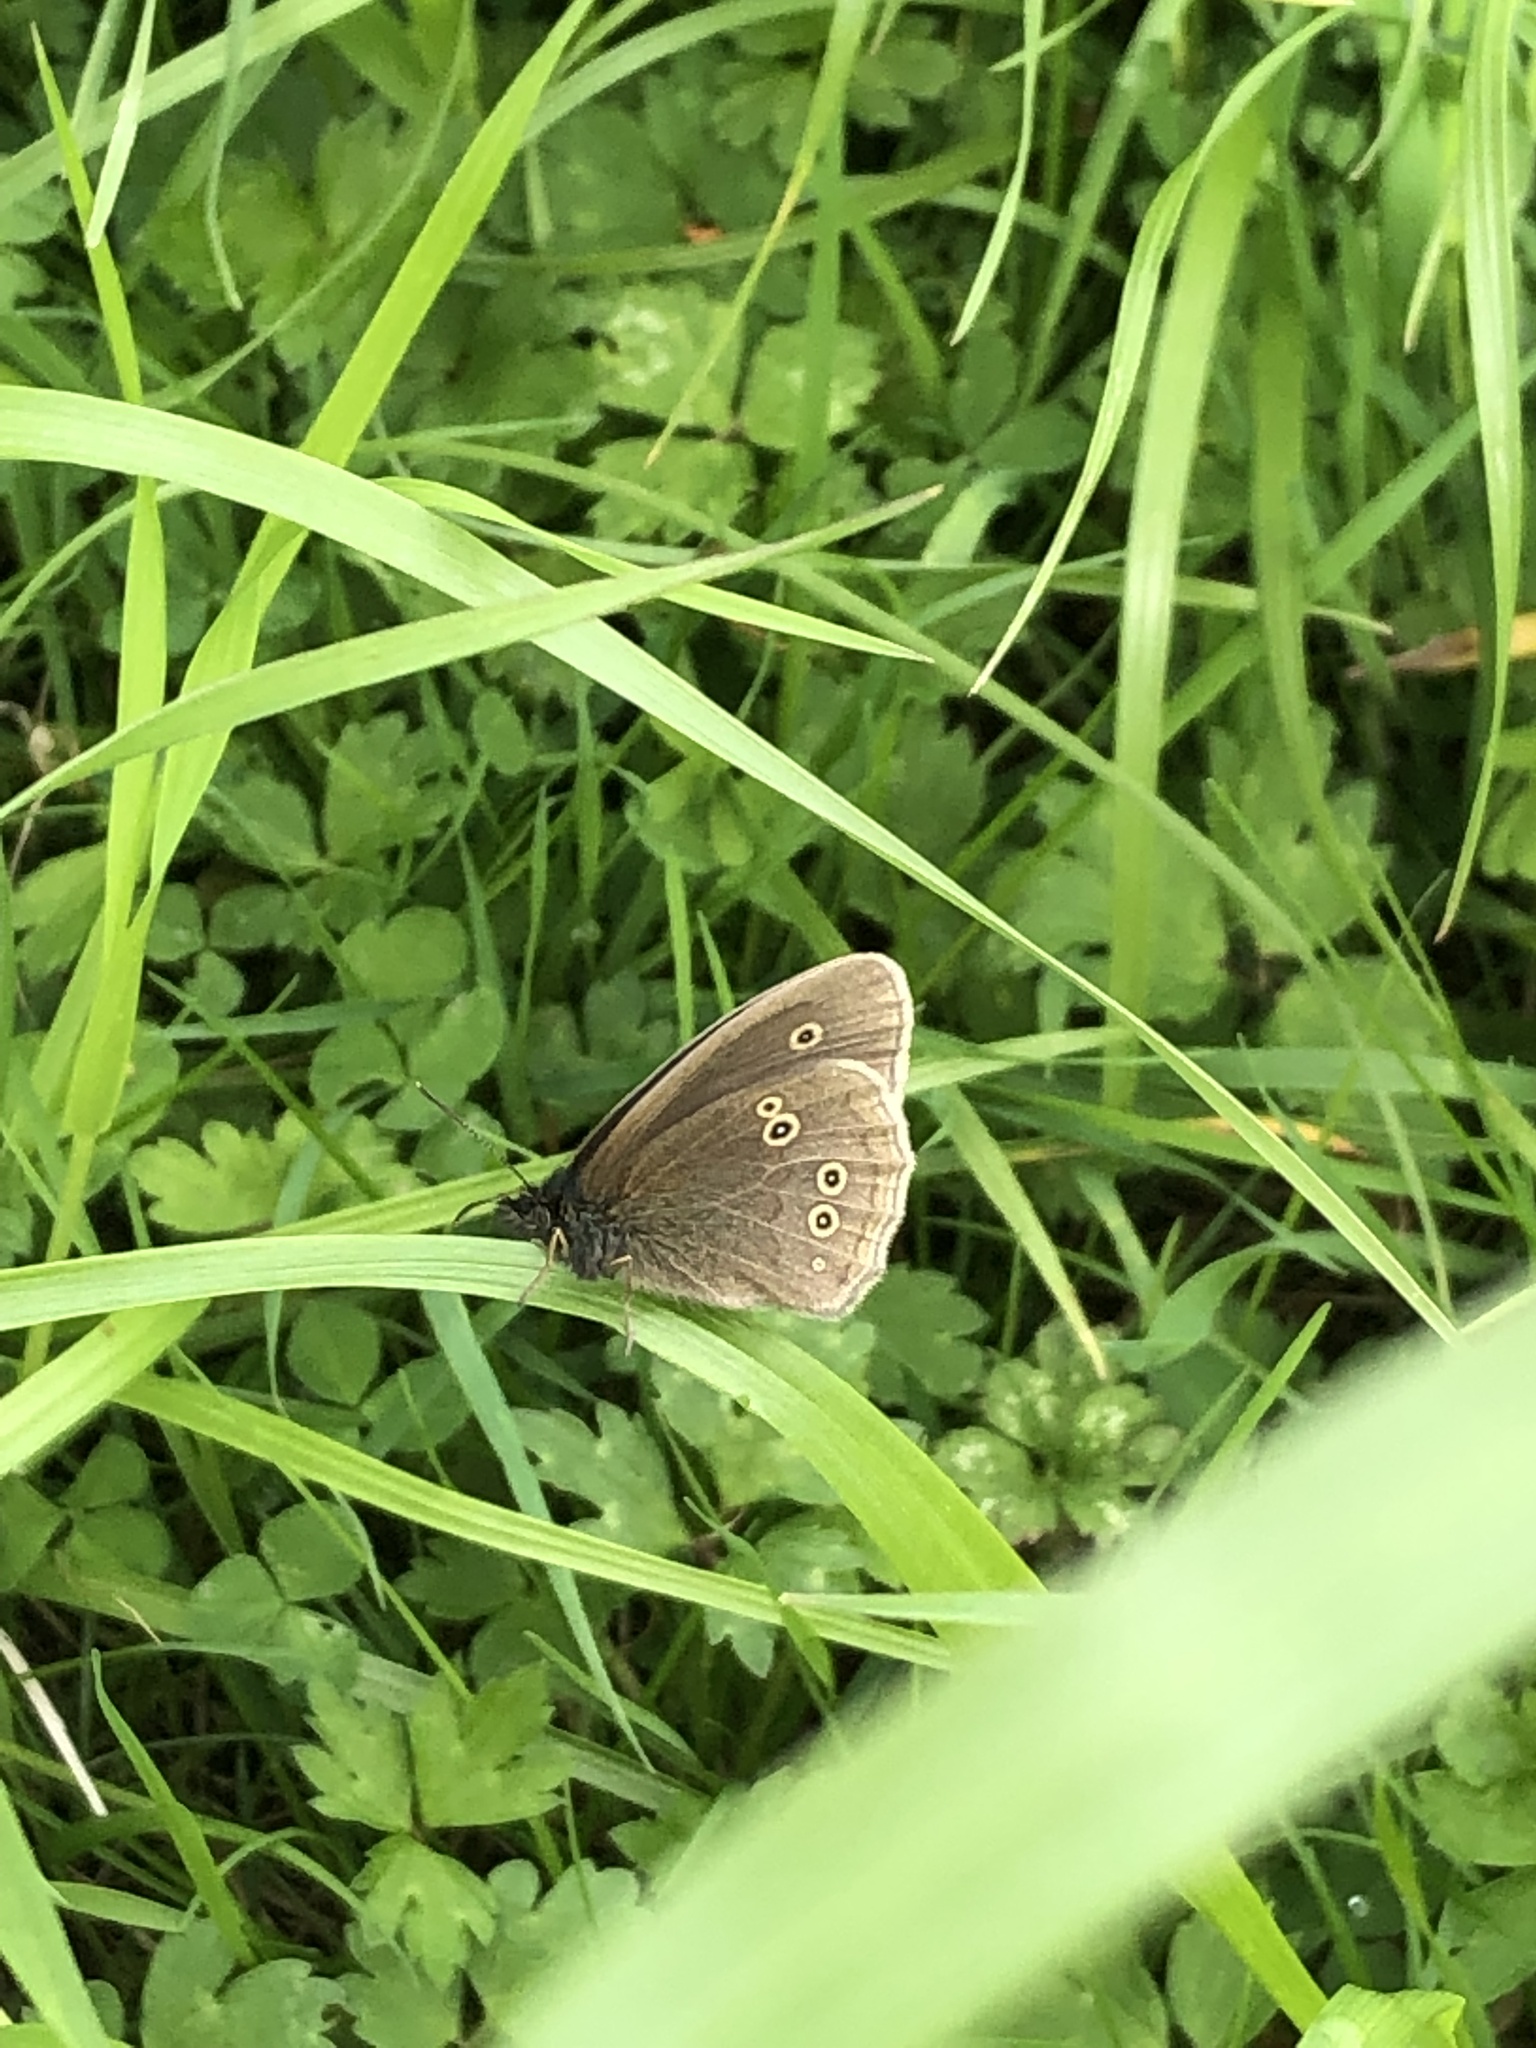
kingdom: Animalia
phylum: Arthropoda
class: Insecta
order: Lepidoptera
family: Nymphalidae
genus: Aphantopus
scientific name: Aphantopus hyperantus
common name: Ringlet
